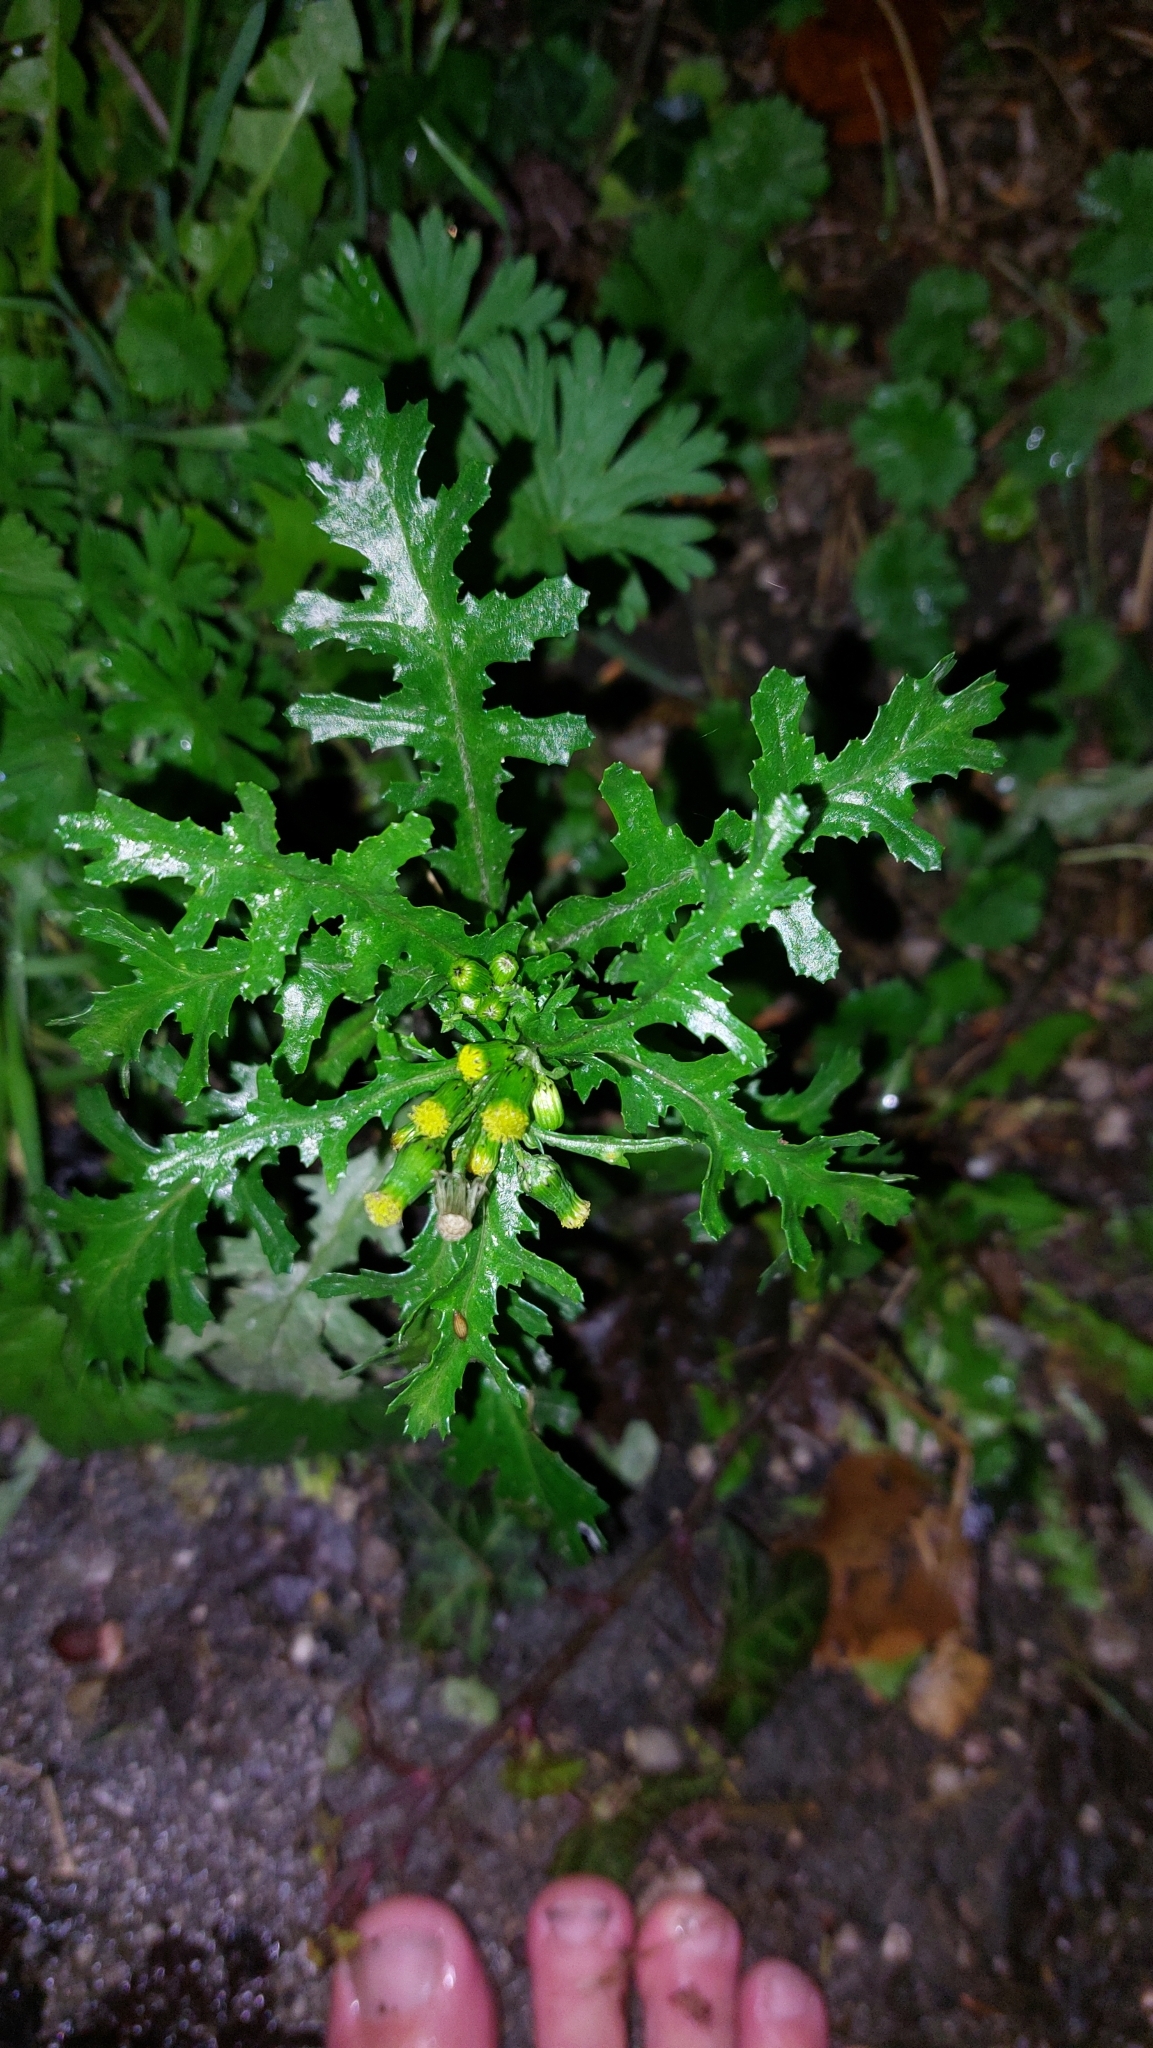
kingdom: Plantae
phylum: Tracheophyta
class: Magnoliopsida
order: Asterales
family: Asteraceae
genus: Senecio
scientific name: Senecio vulgaris
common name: Old-man-in-the-spring
